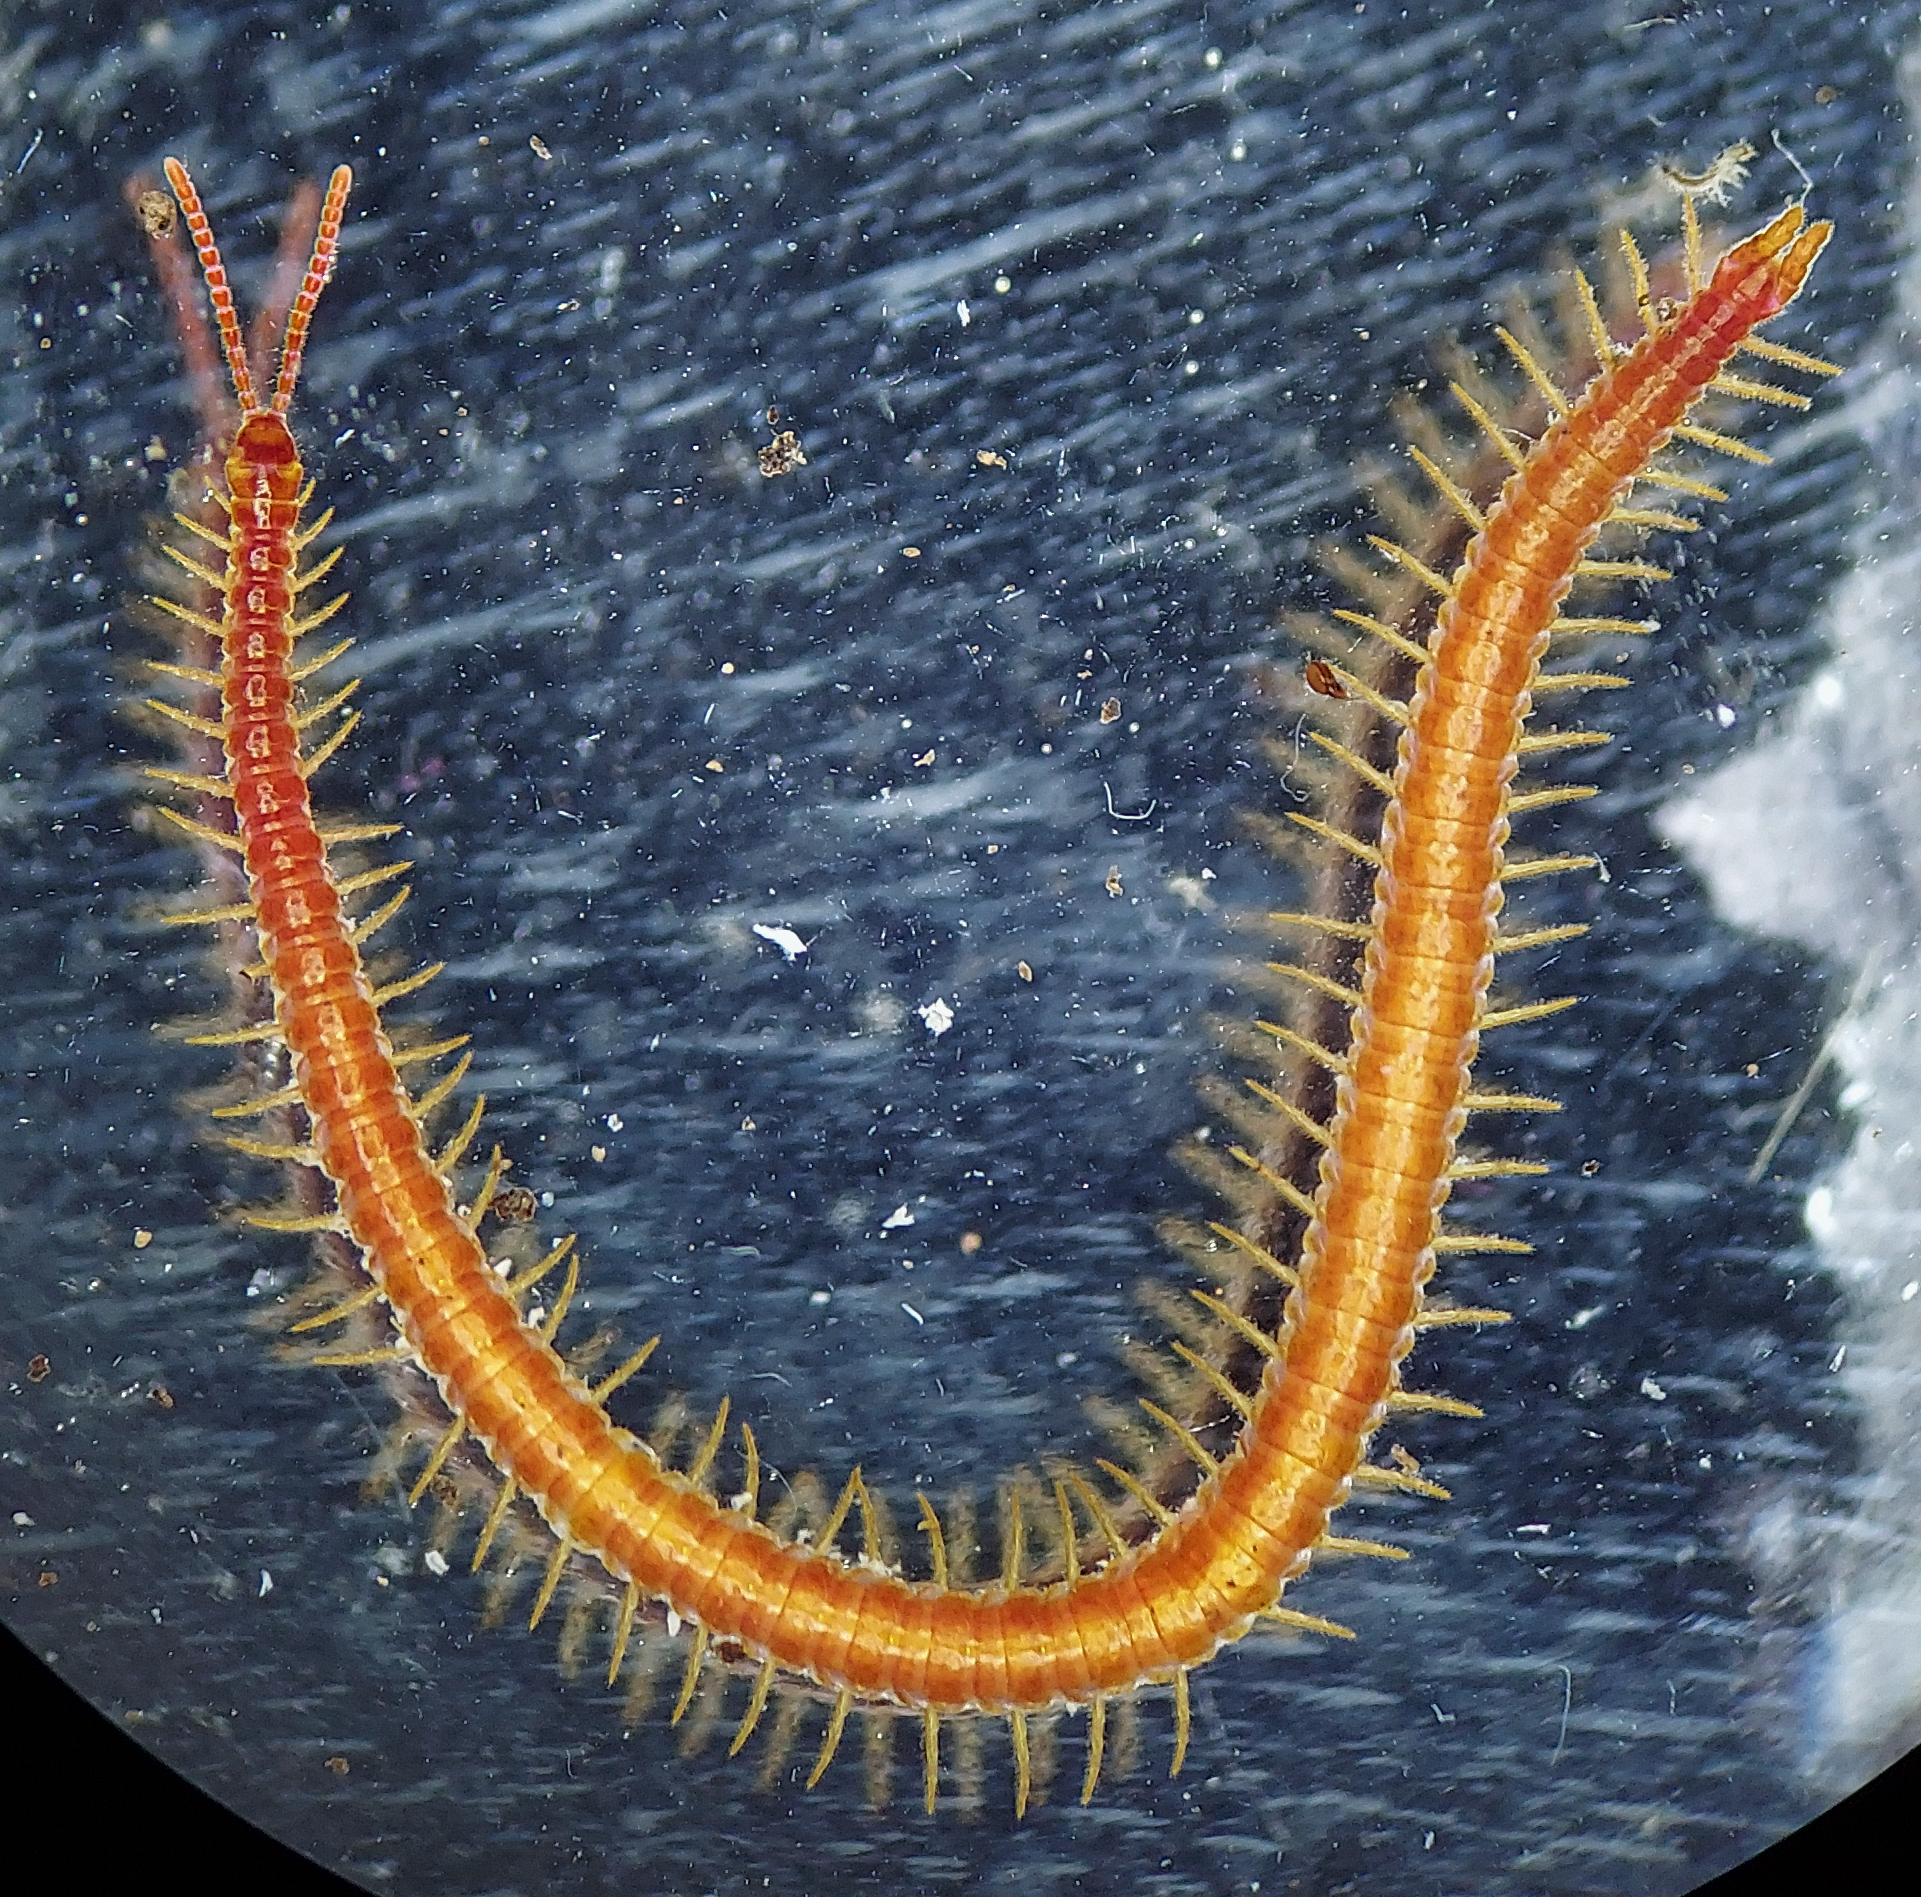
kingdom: Animalia
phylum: Arthropoda
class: Chilopoda
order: Geophilomorpha
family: Linotaeniidae
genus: Strigamia
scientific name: Strigamia bothriopus
